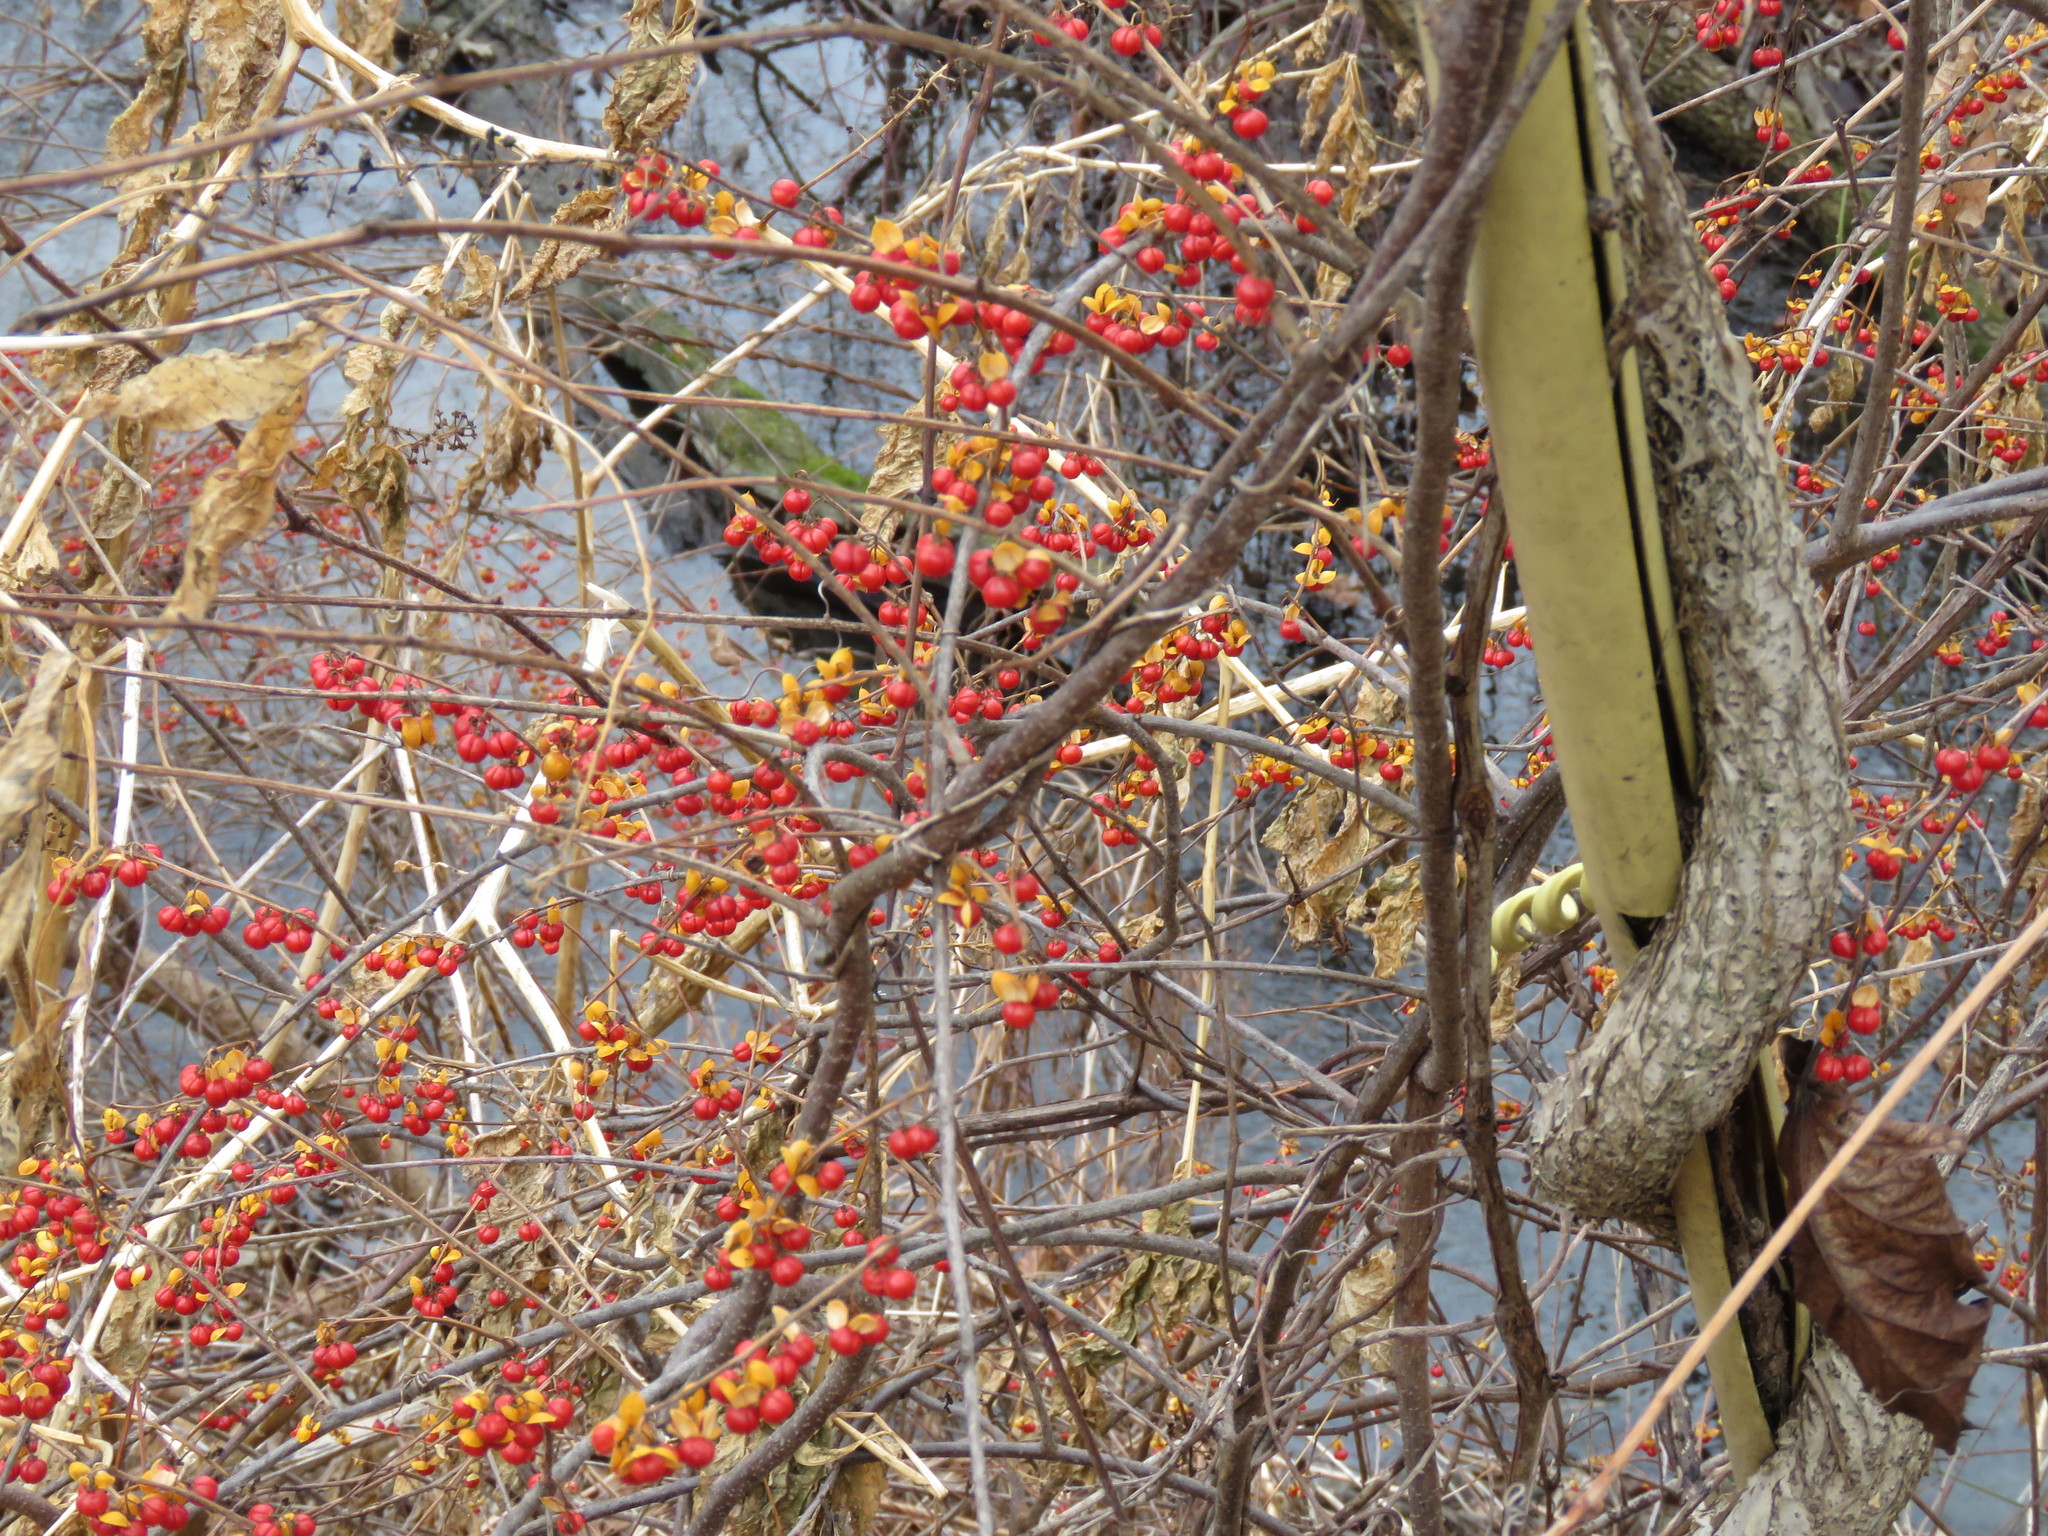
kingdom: Plantae
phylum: Tracheophyta
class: Magnoliopsida
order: Celastrales
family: Celastraceae
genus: Celastrus
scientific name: Celastrus orbiculatus
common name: Oriental bittersweet
